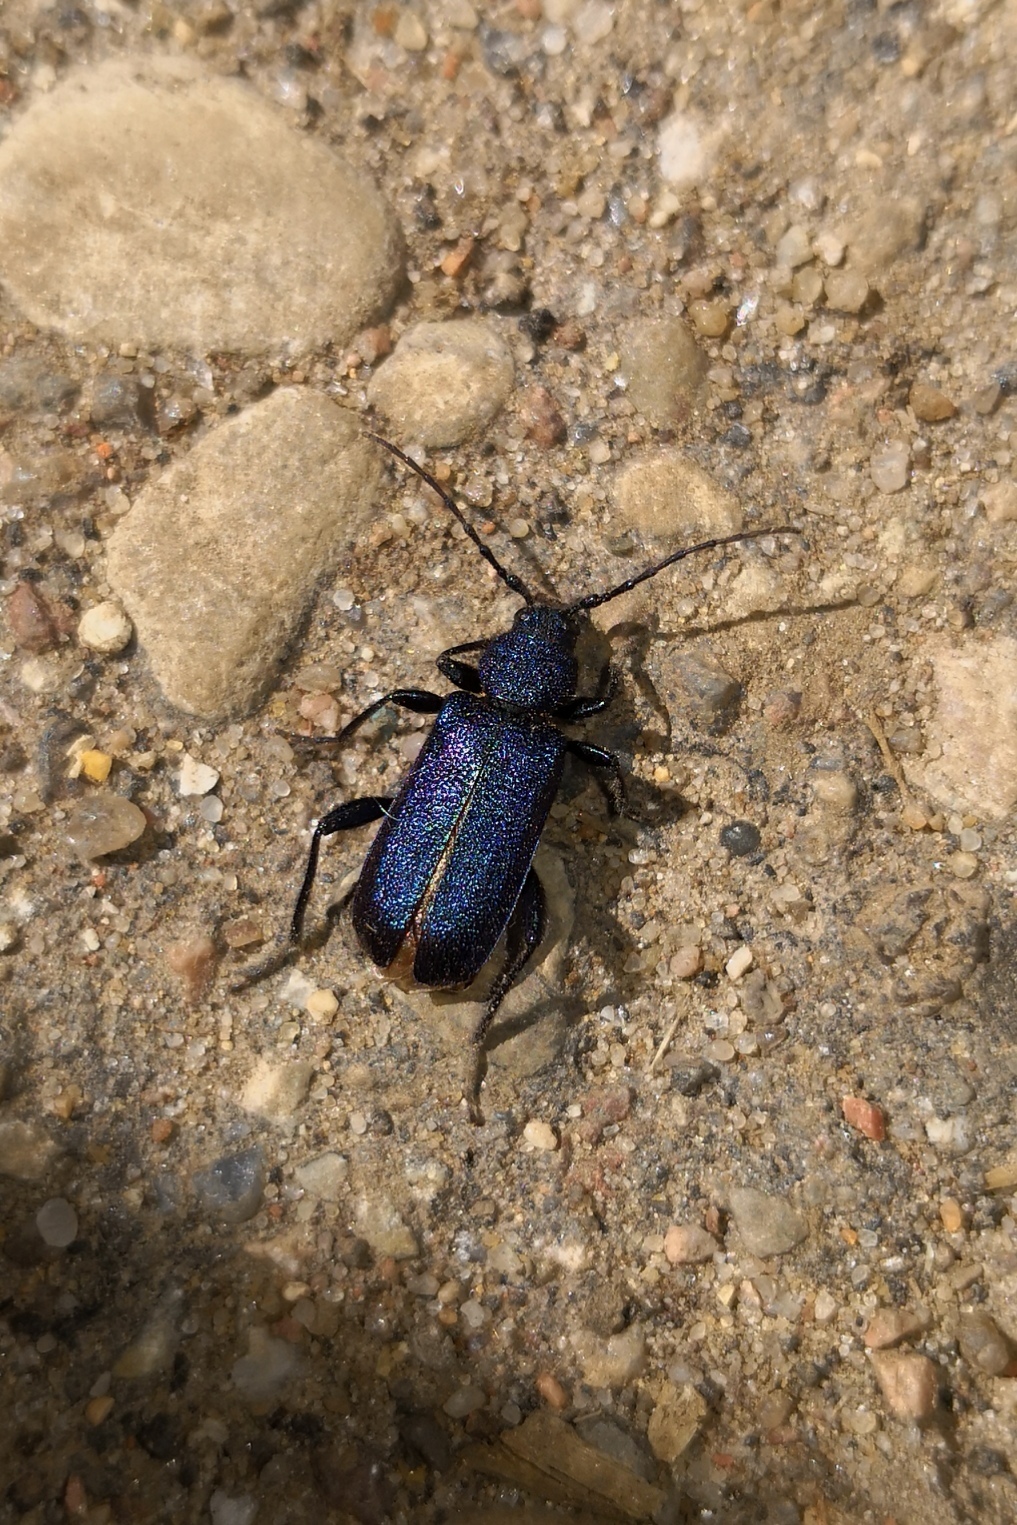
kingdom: Animalia
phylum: Arthropoda
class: Insecta
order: Coleoptera
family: Cerambycidae
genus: Callidium
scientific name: Callidium violaceum
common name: Violet tanbark beetle
